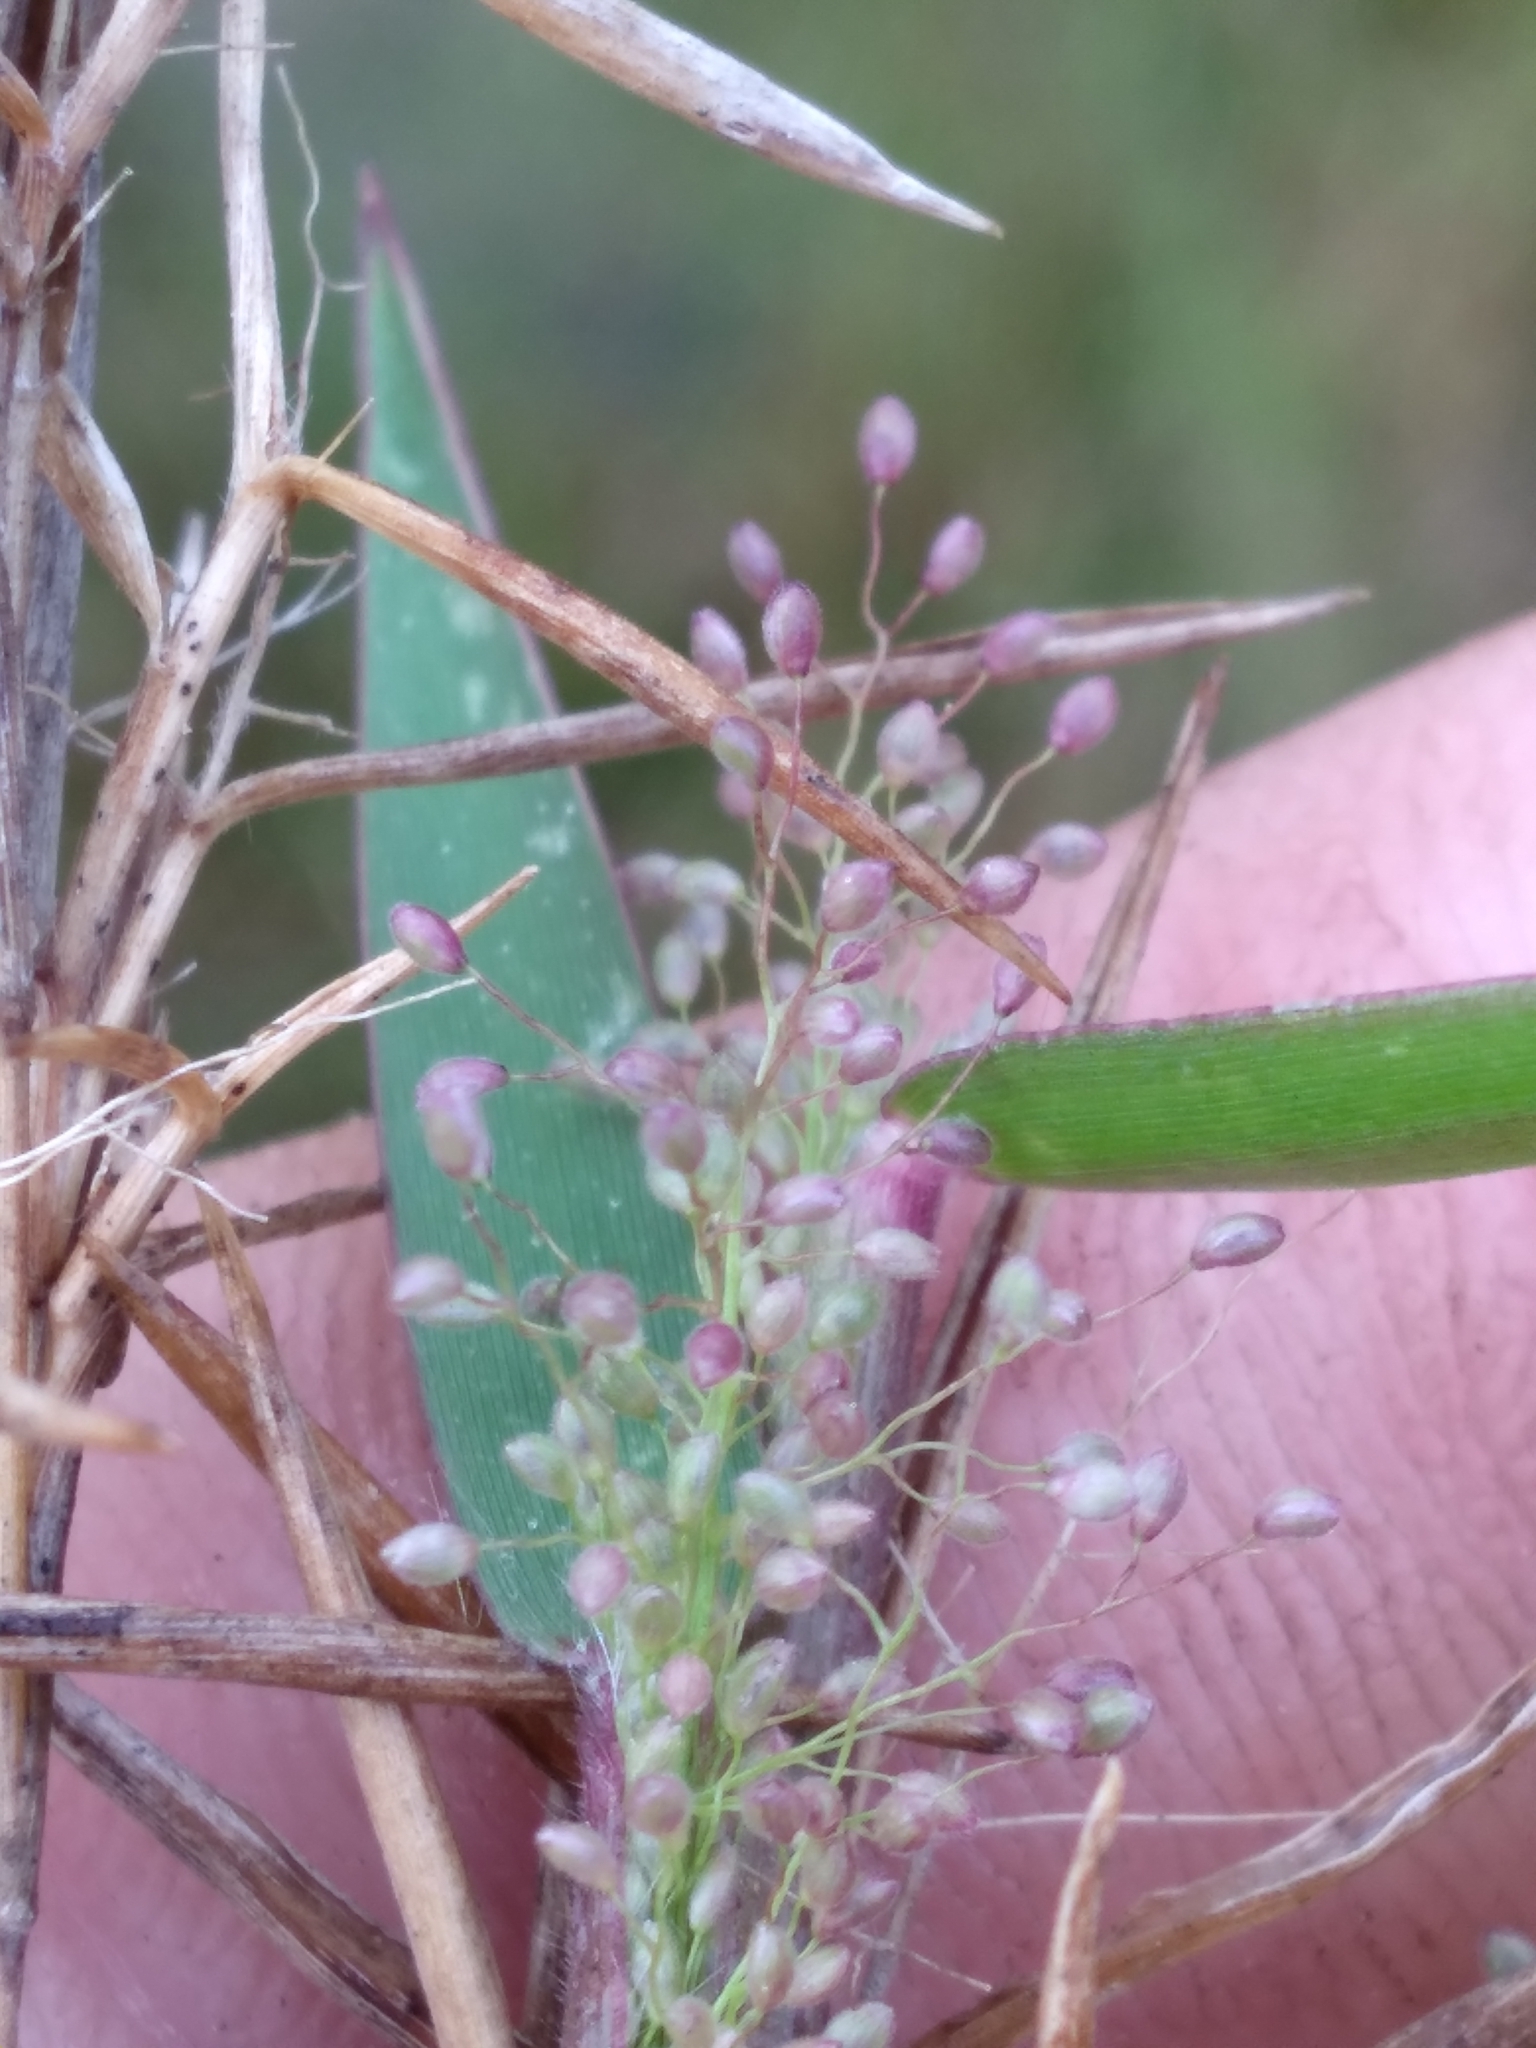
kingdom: Plantae
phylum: Tracheophyta
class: Liliopsida
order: Poales
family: Poaceae
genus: Dichanthelium
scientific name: Dichanthelium leucothrix
